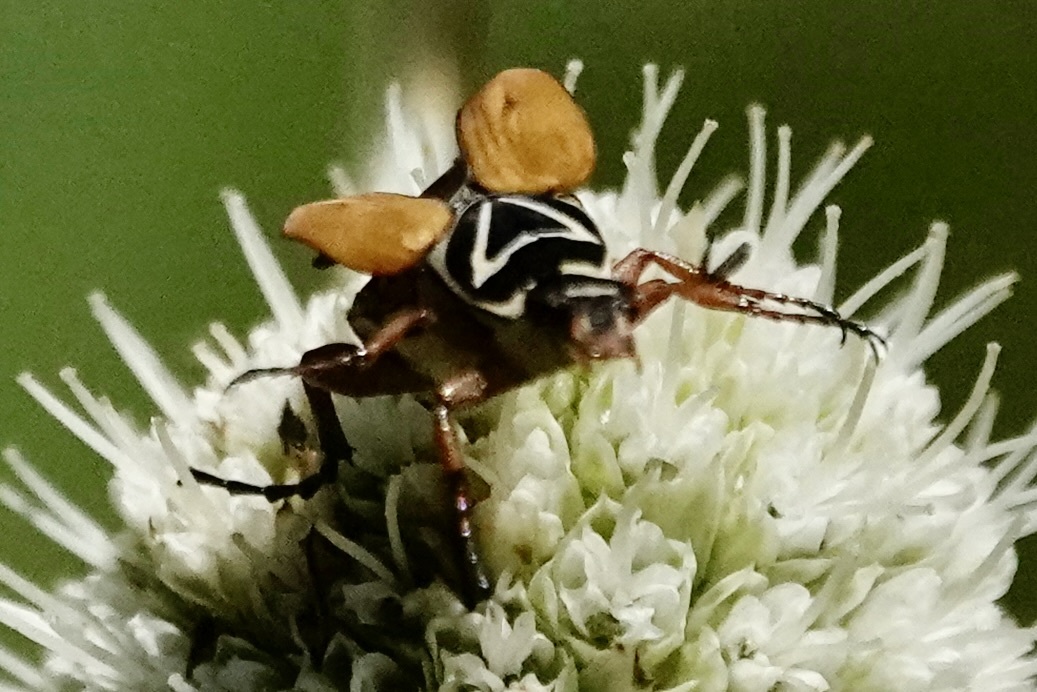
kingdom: Animalia
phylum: Arthropoda
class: Insecta
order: Coleoptera
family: Scarabaeidae
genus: Trigonopeltastes
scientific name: Trigonopeltastes delta
